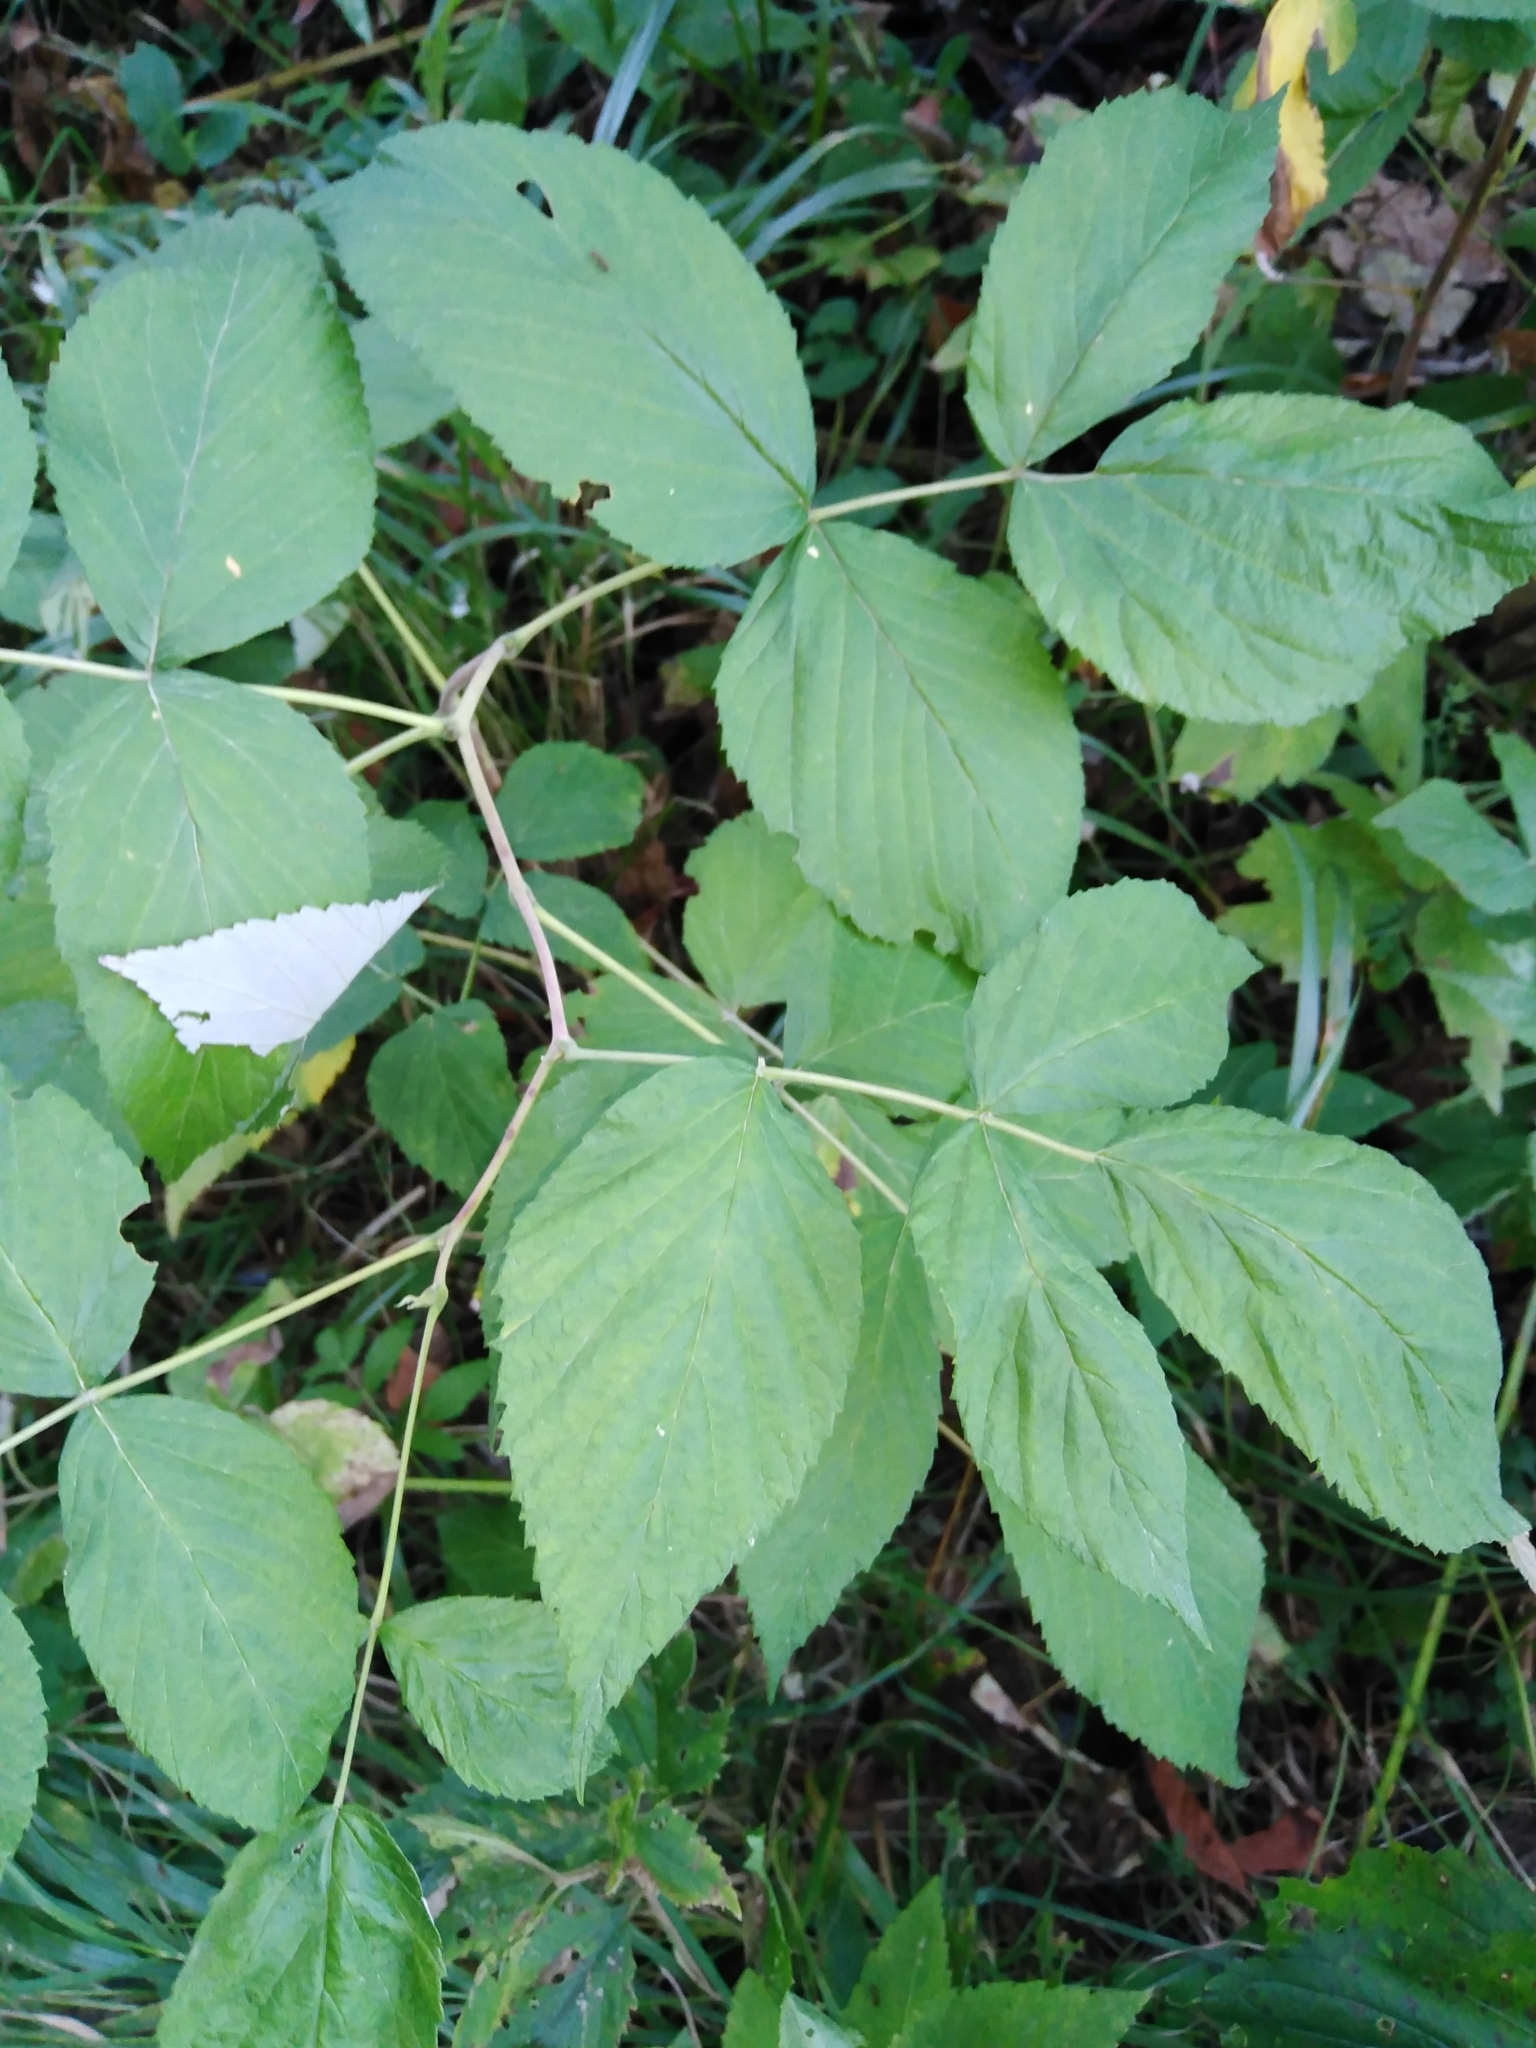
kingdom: Plantae
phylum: Tracheophyta
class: Magnoliopsida
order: Rosales
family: Rosaceae
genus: Rubus
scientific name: Rubus idaeus
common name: Raspberry
